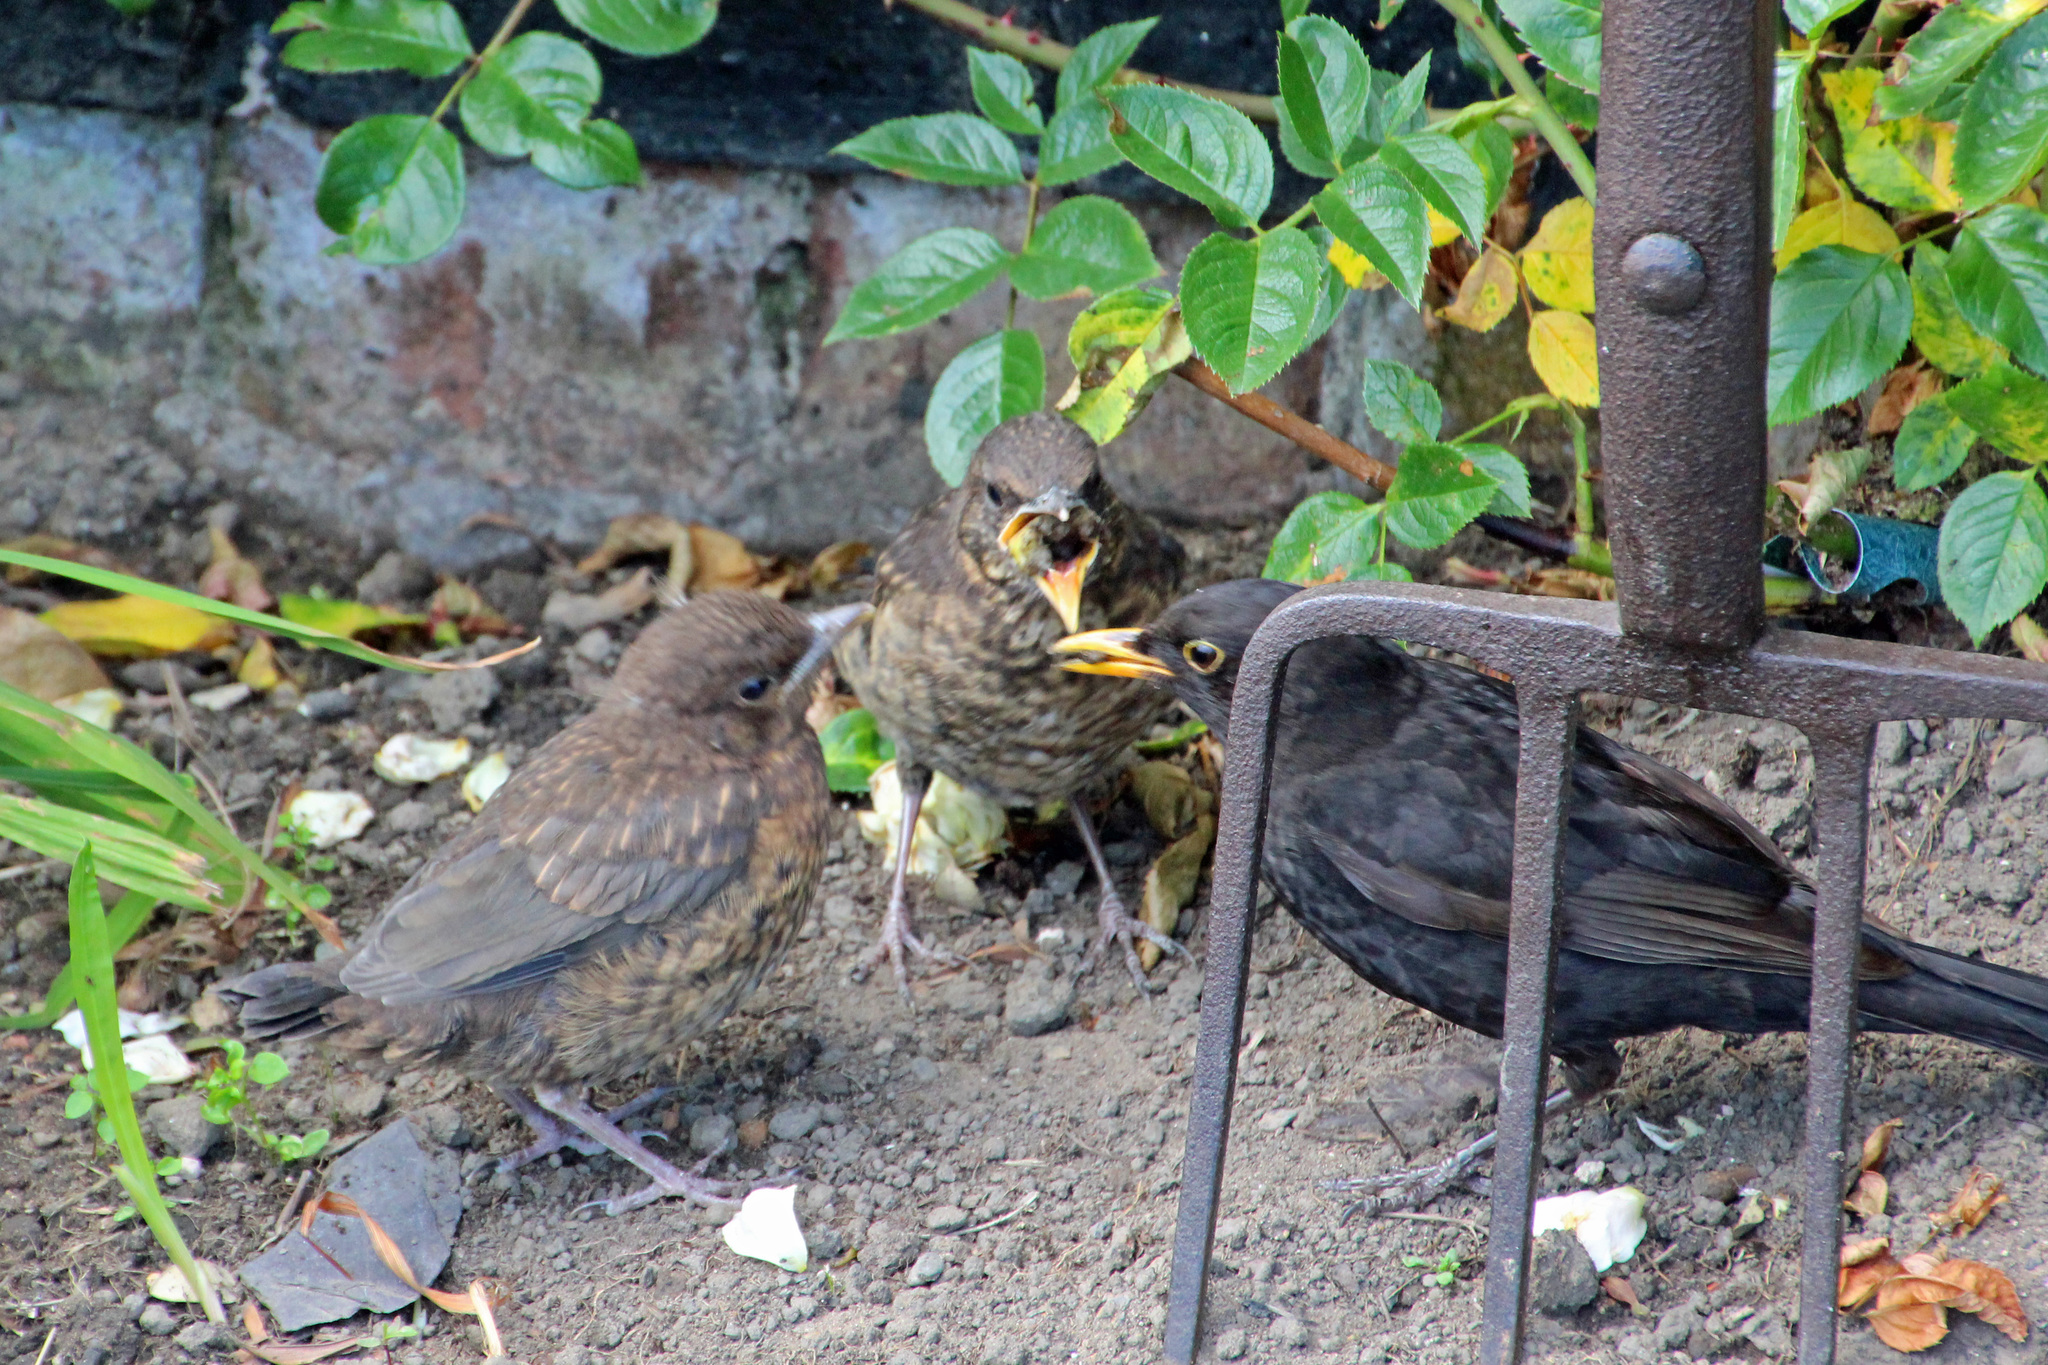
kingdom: Animalia
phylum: Chordata
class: Aves
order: Passeriformes
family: Turdidae
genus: Turdus
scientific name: Turdus merula
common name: Common blackbird
